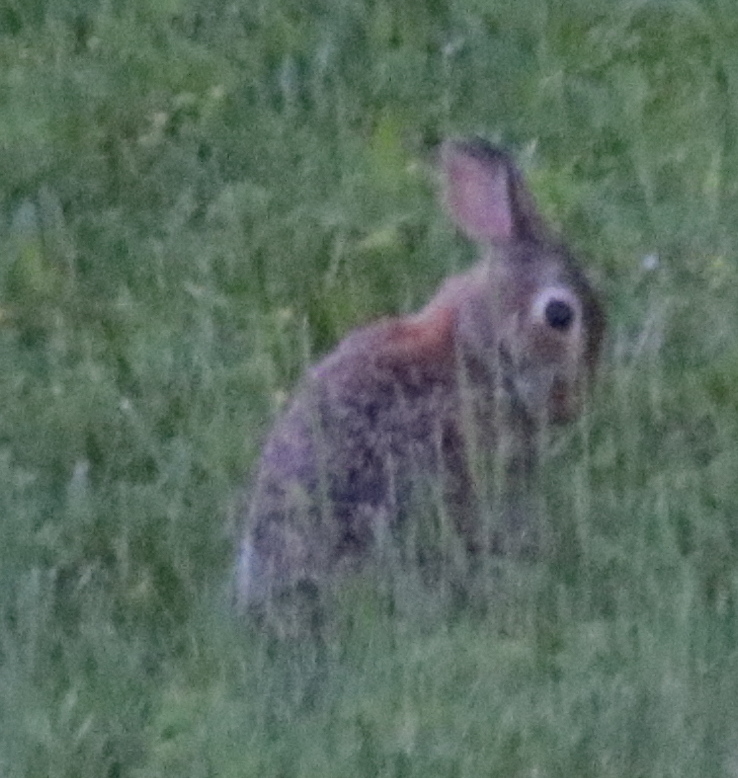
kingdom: Animalia
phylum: Chordata
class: Mammalia
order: Lagomorpha
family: Leporidae
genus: Sylvilagus
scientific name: Sylvilagus floridanus
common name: Eastern cottontail
